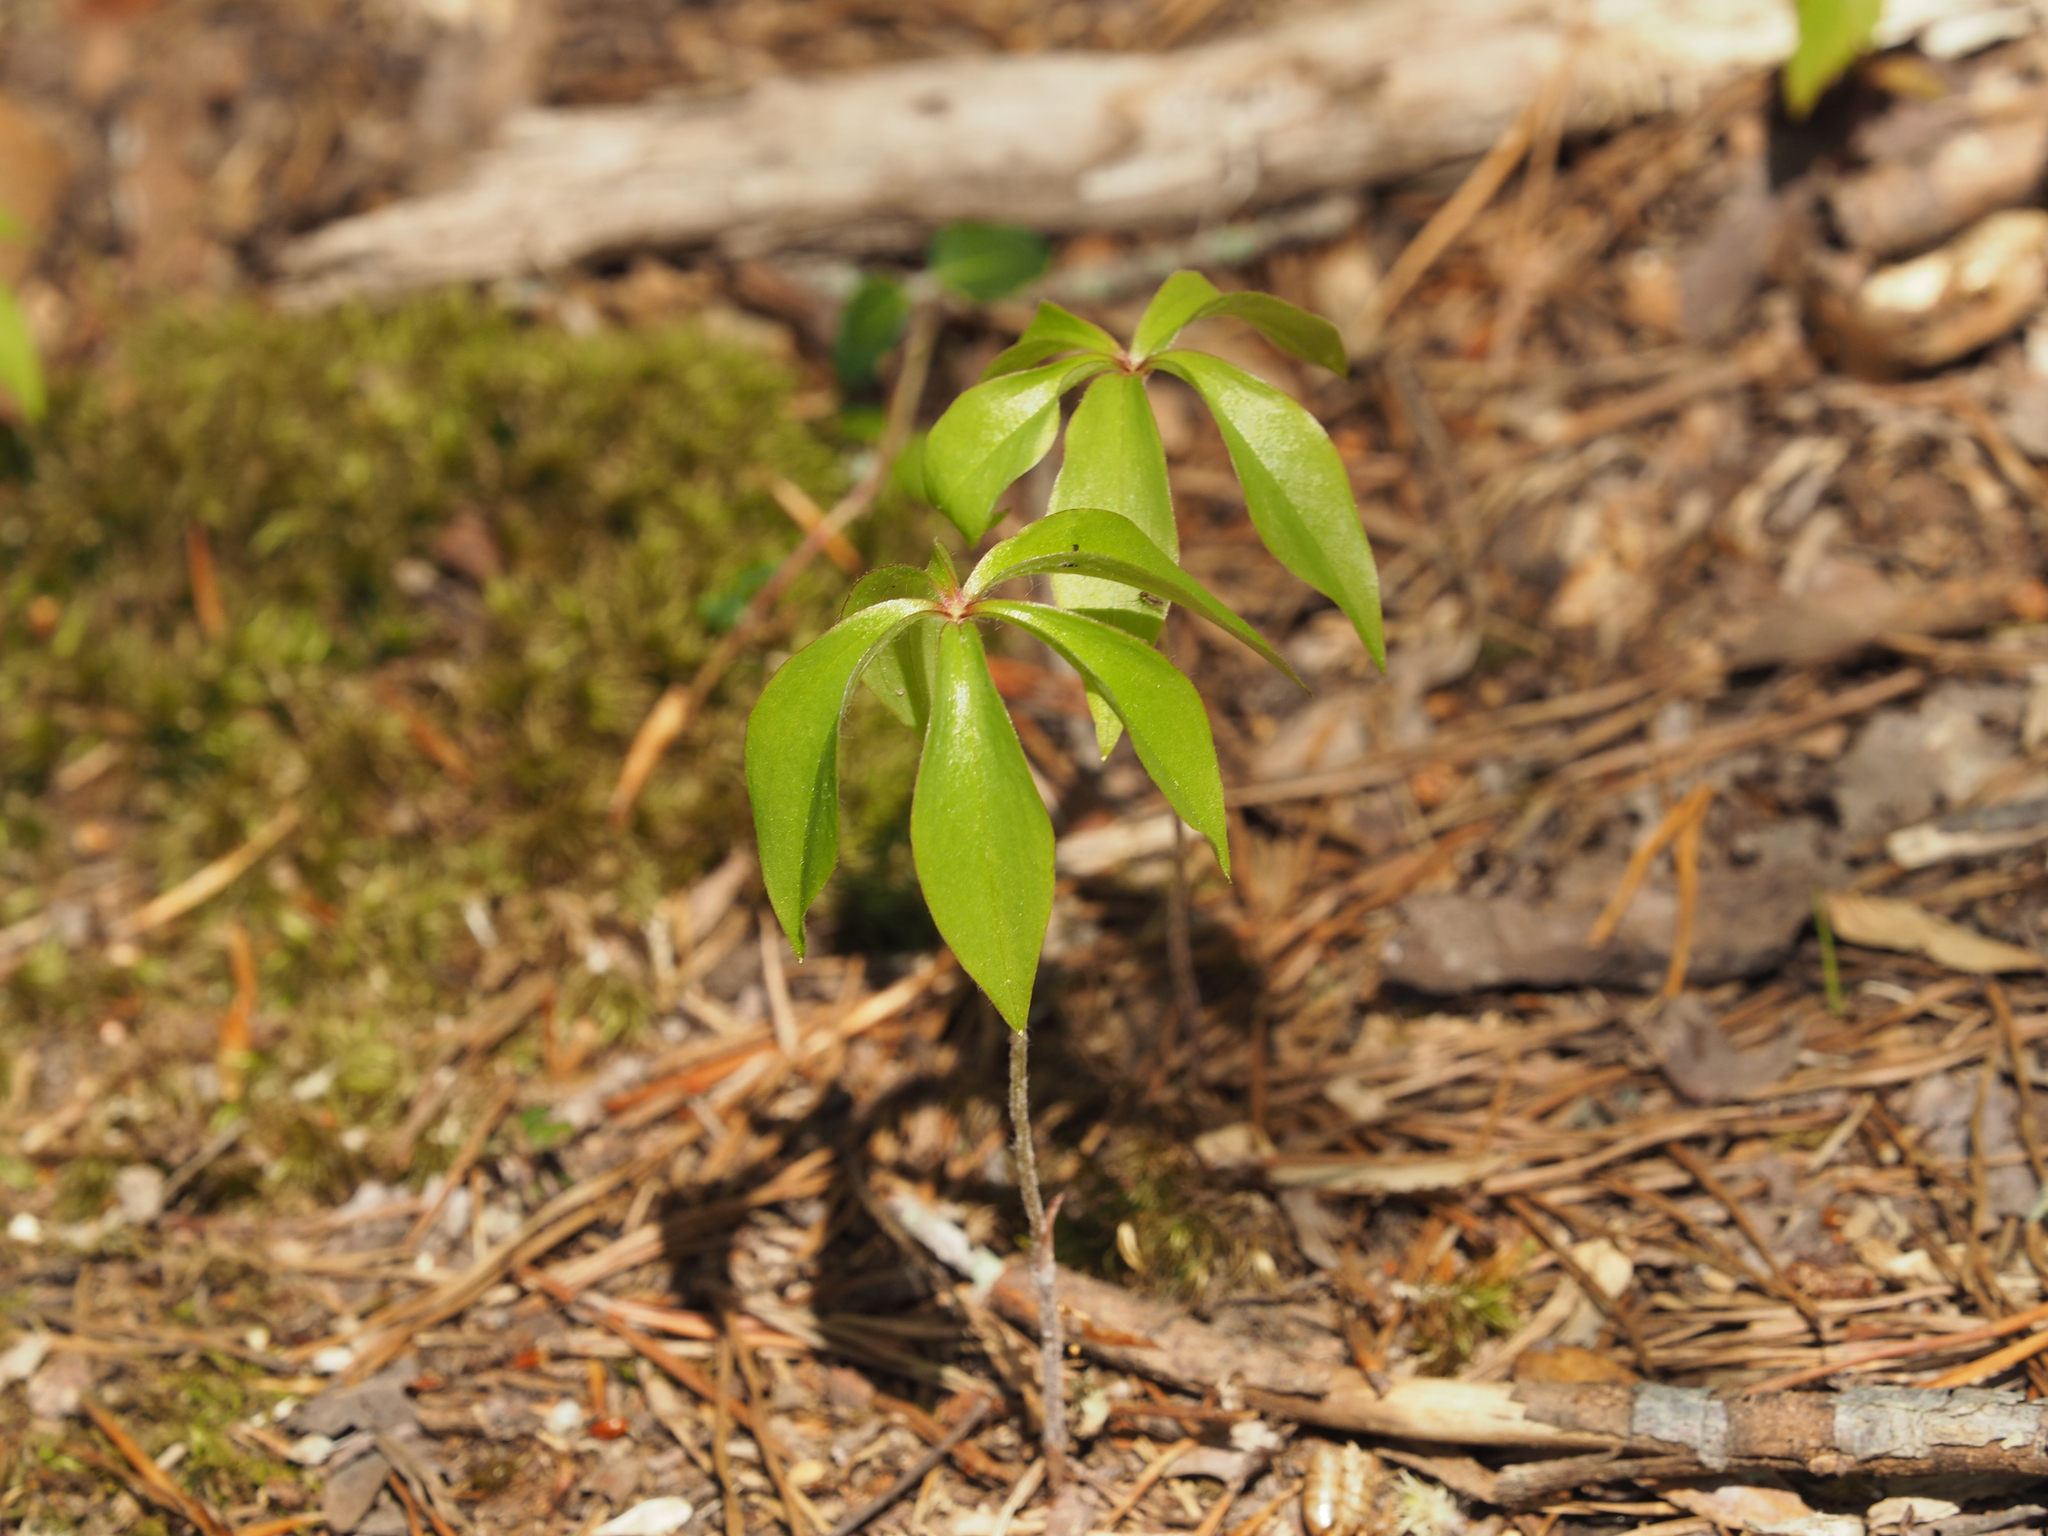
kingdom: Plantae
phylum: Tracheophyta
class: Liliopsida
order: Liliales
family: Liliaceae
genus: Medeola
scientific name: Medeola virginiana
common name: Indian cucumber-root
